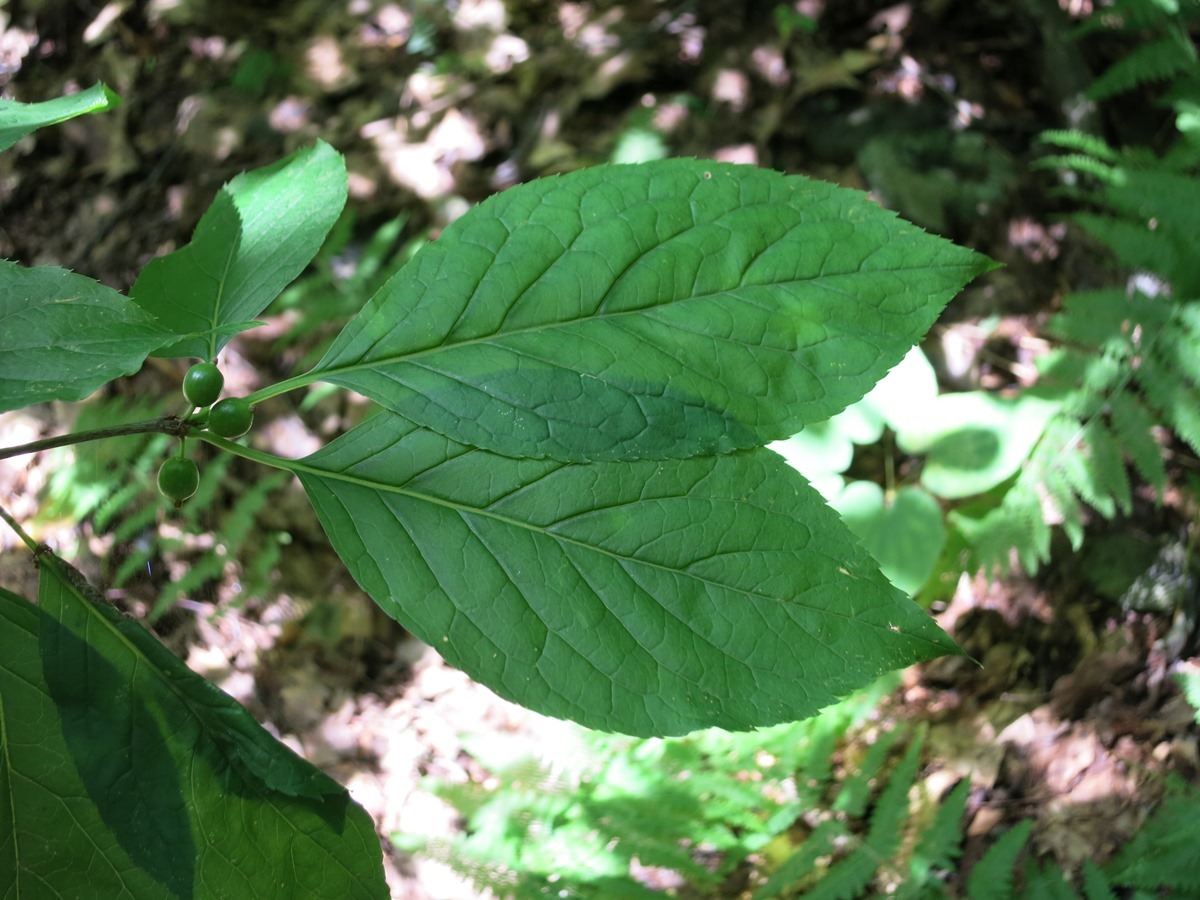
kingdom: Plantae
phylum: Tracheophyta
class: Magnoliopsida
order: Aquifoliales
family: Aquifoliaceae
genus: Ilex
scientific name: Ilex montana
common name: Mountain winterberry
